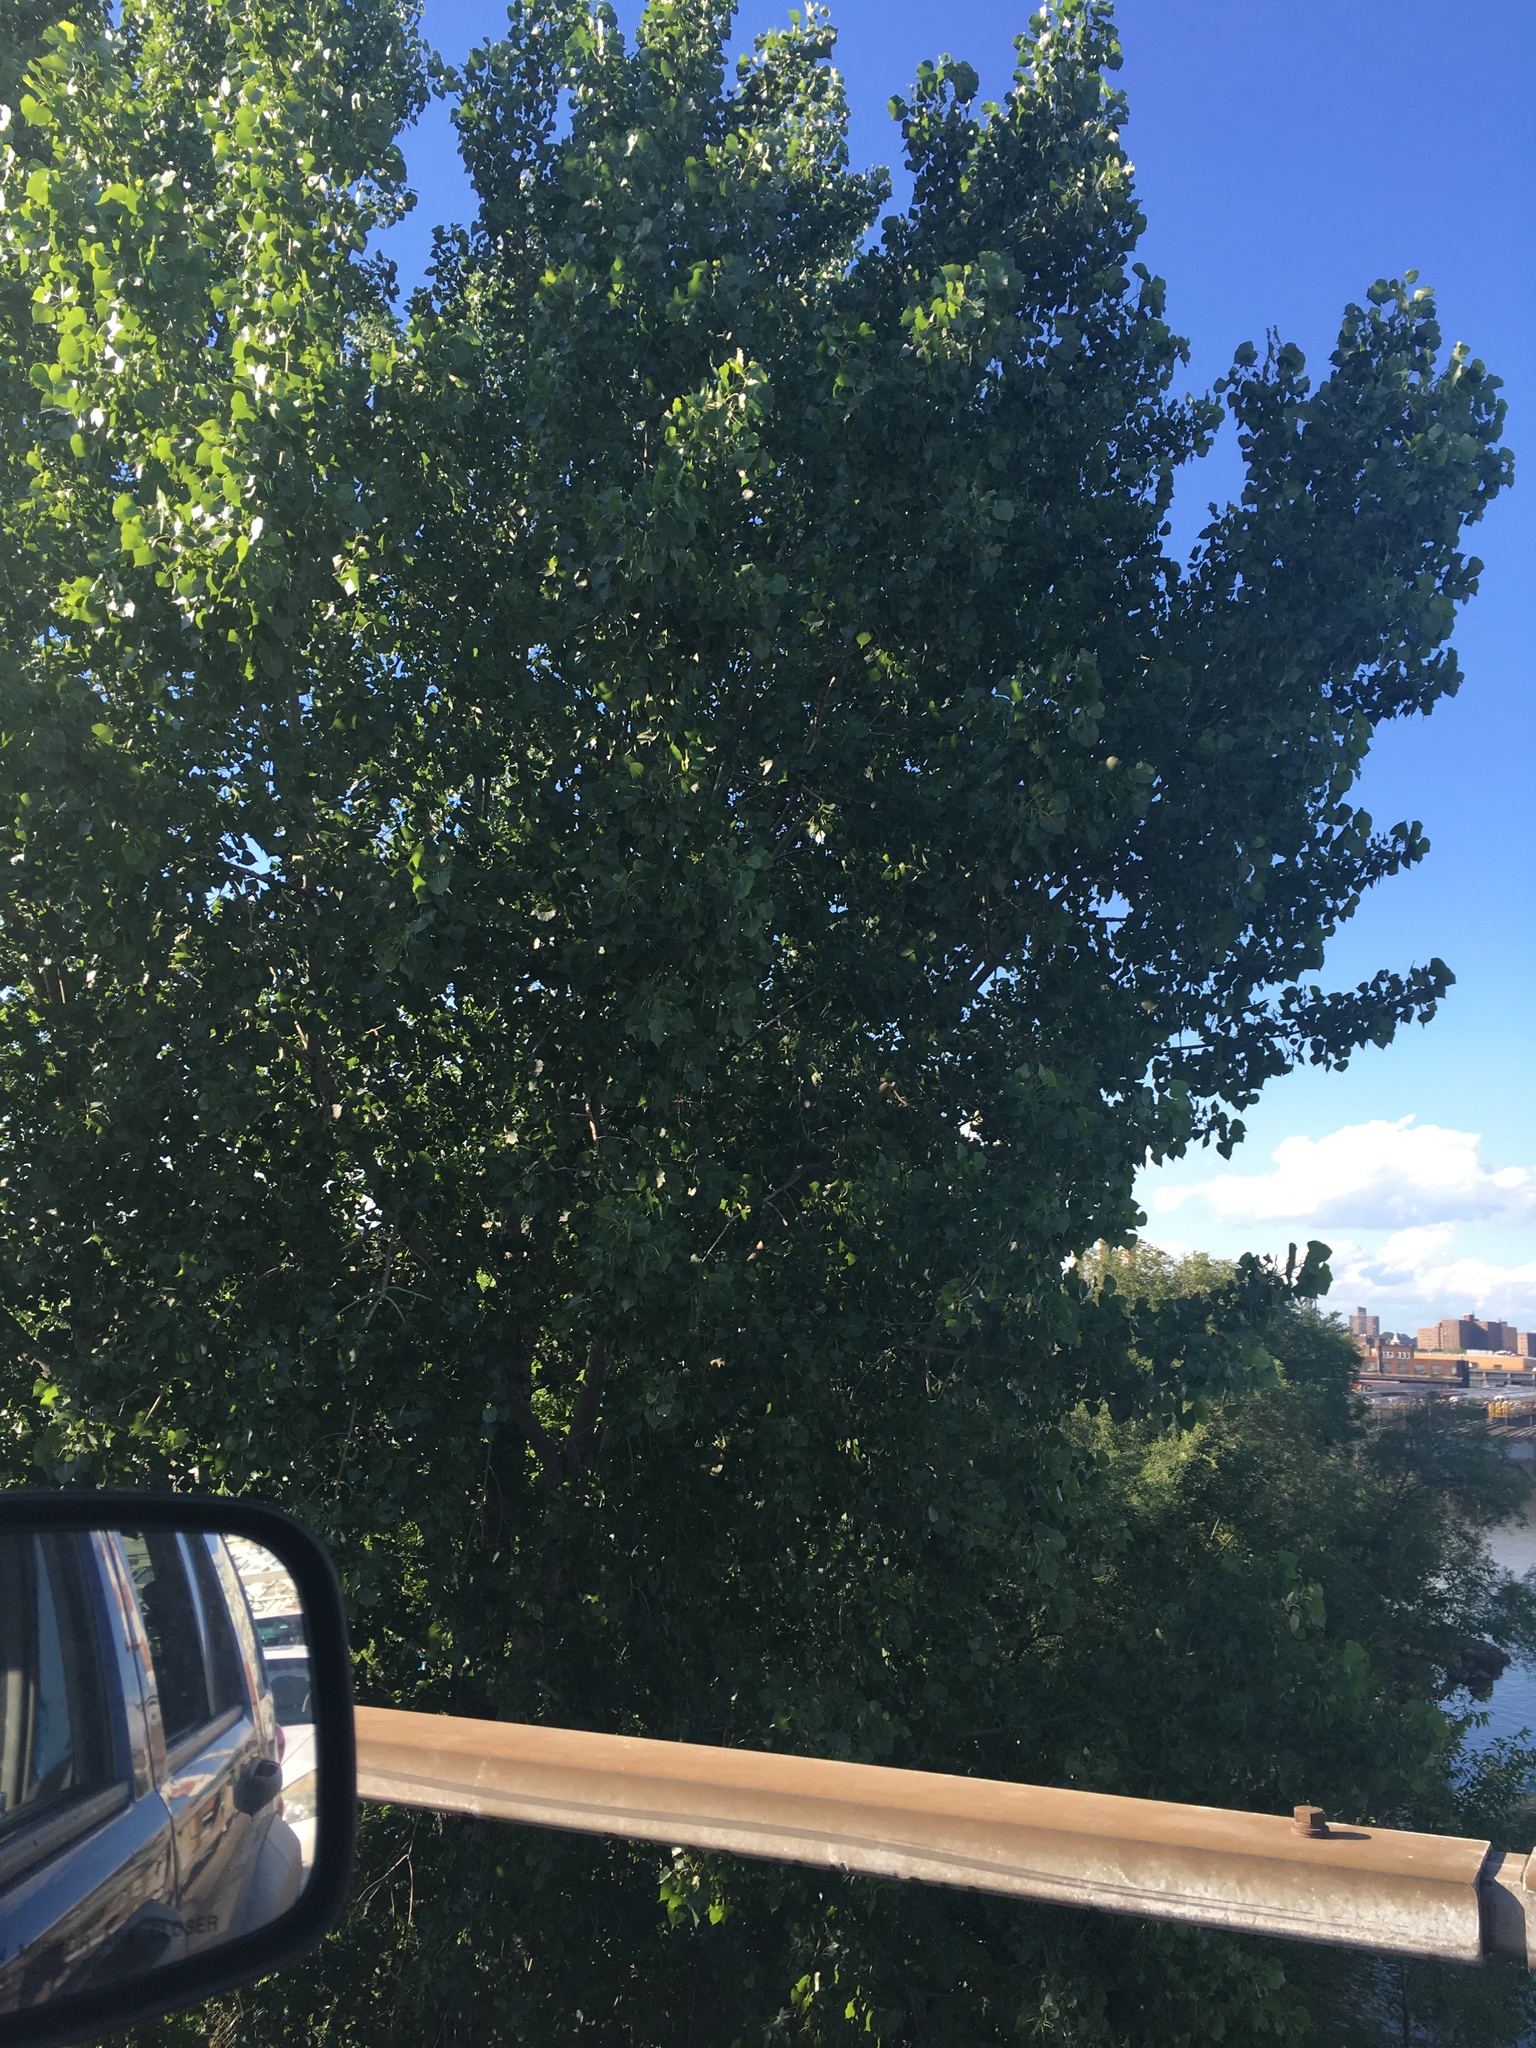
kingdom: Plantae
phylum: Tracheophyta
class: Magnoliopsida
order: Malpighiales
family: Salicaceae
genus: Populus
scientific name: Populus deltoides
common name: Eastern cottonwood
